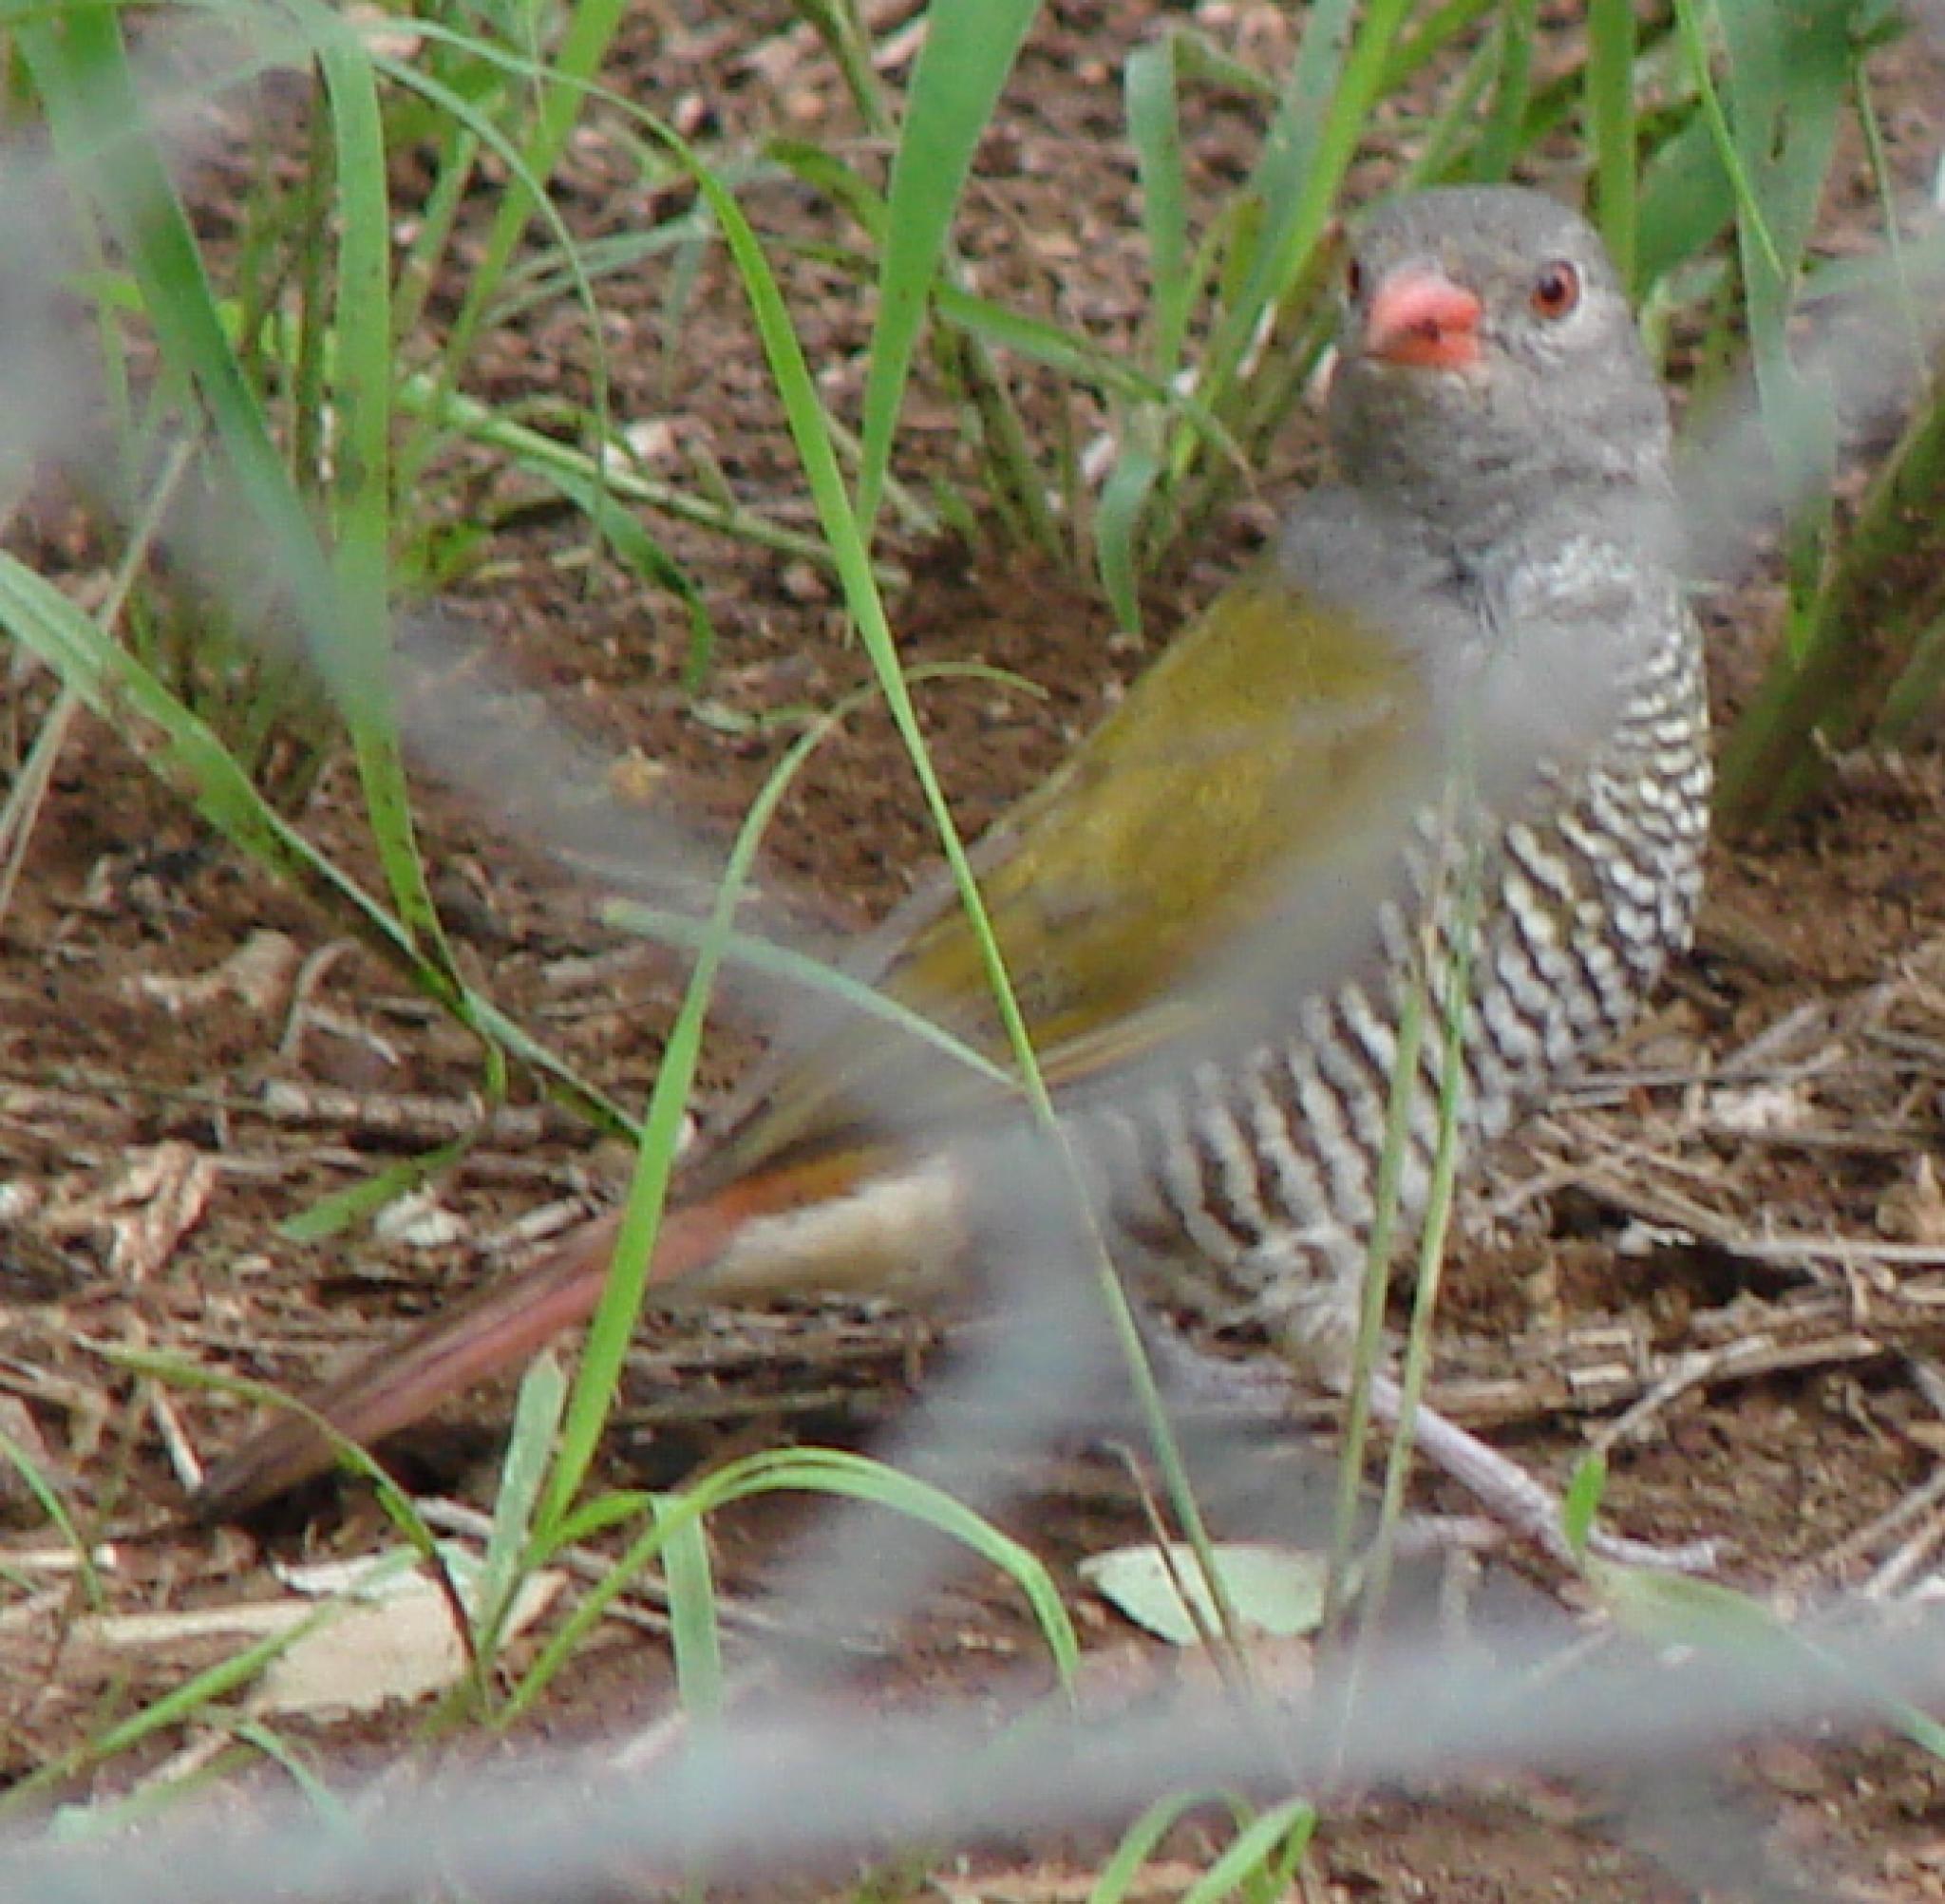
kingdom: Animalia
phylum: Chordata
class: Aves
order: Passeriformes
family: Estrildidae
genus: Pytilia
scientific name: Pytilia melba
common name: Green-winged pytilia
